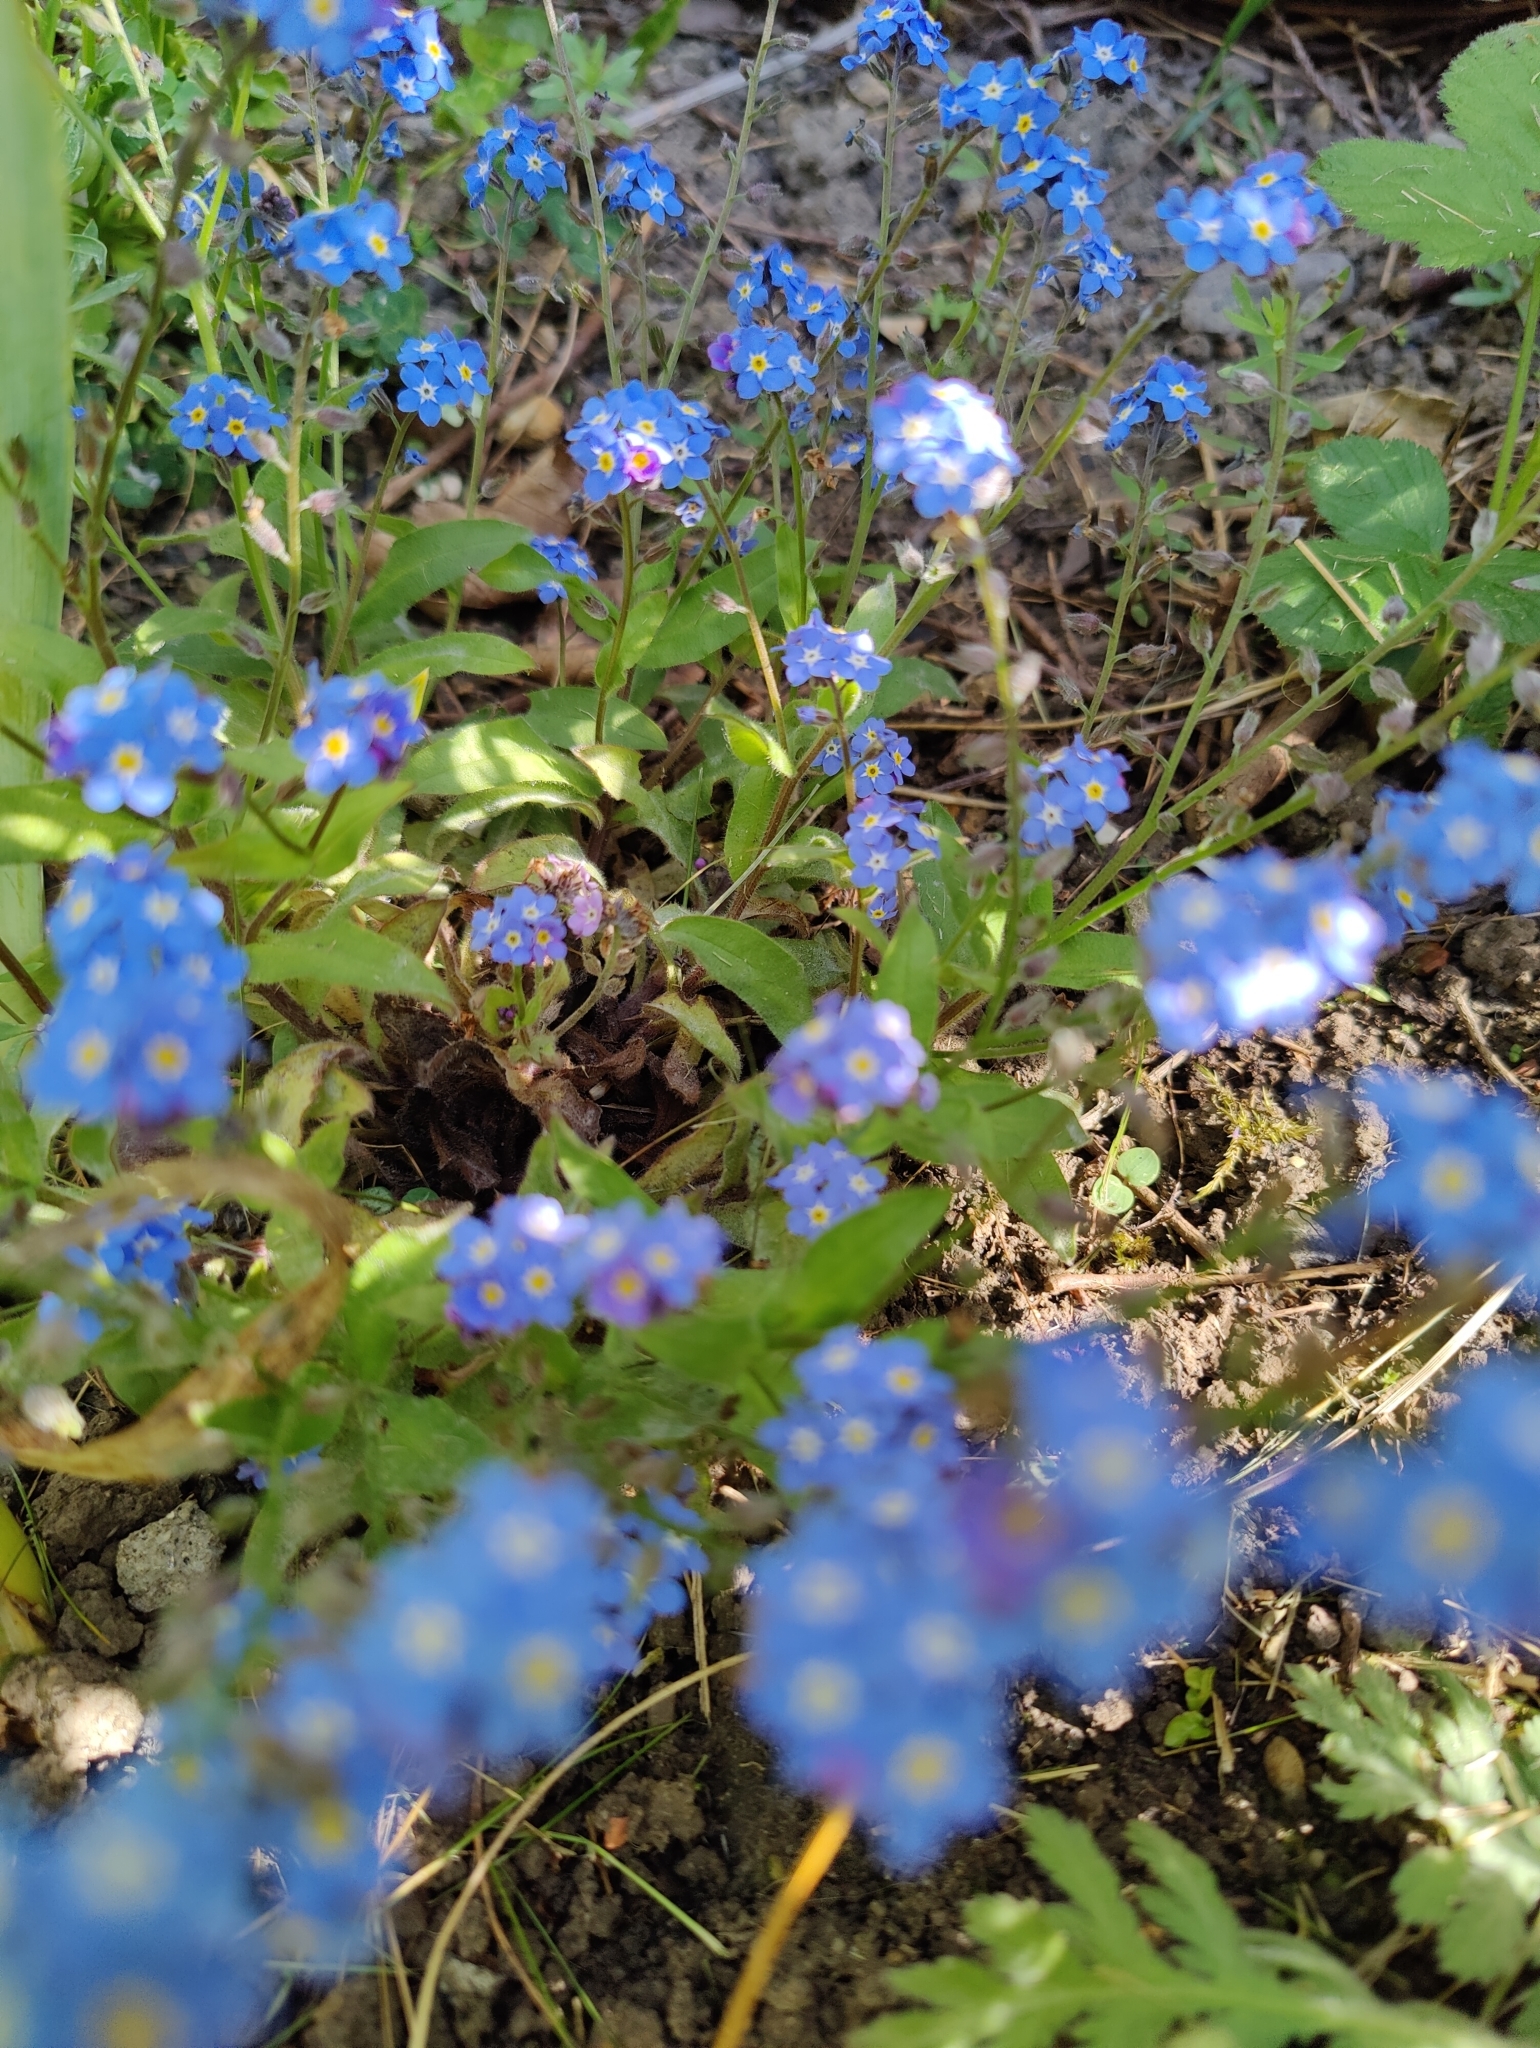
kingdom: Plantae
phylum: Tracheophyta
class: Magnoliopsida
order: Boraginales
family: Boraginaceae
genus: Myosotis
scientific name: Myosotis sylvatica
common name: Wood forget-me-not
